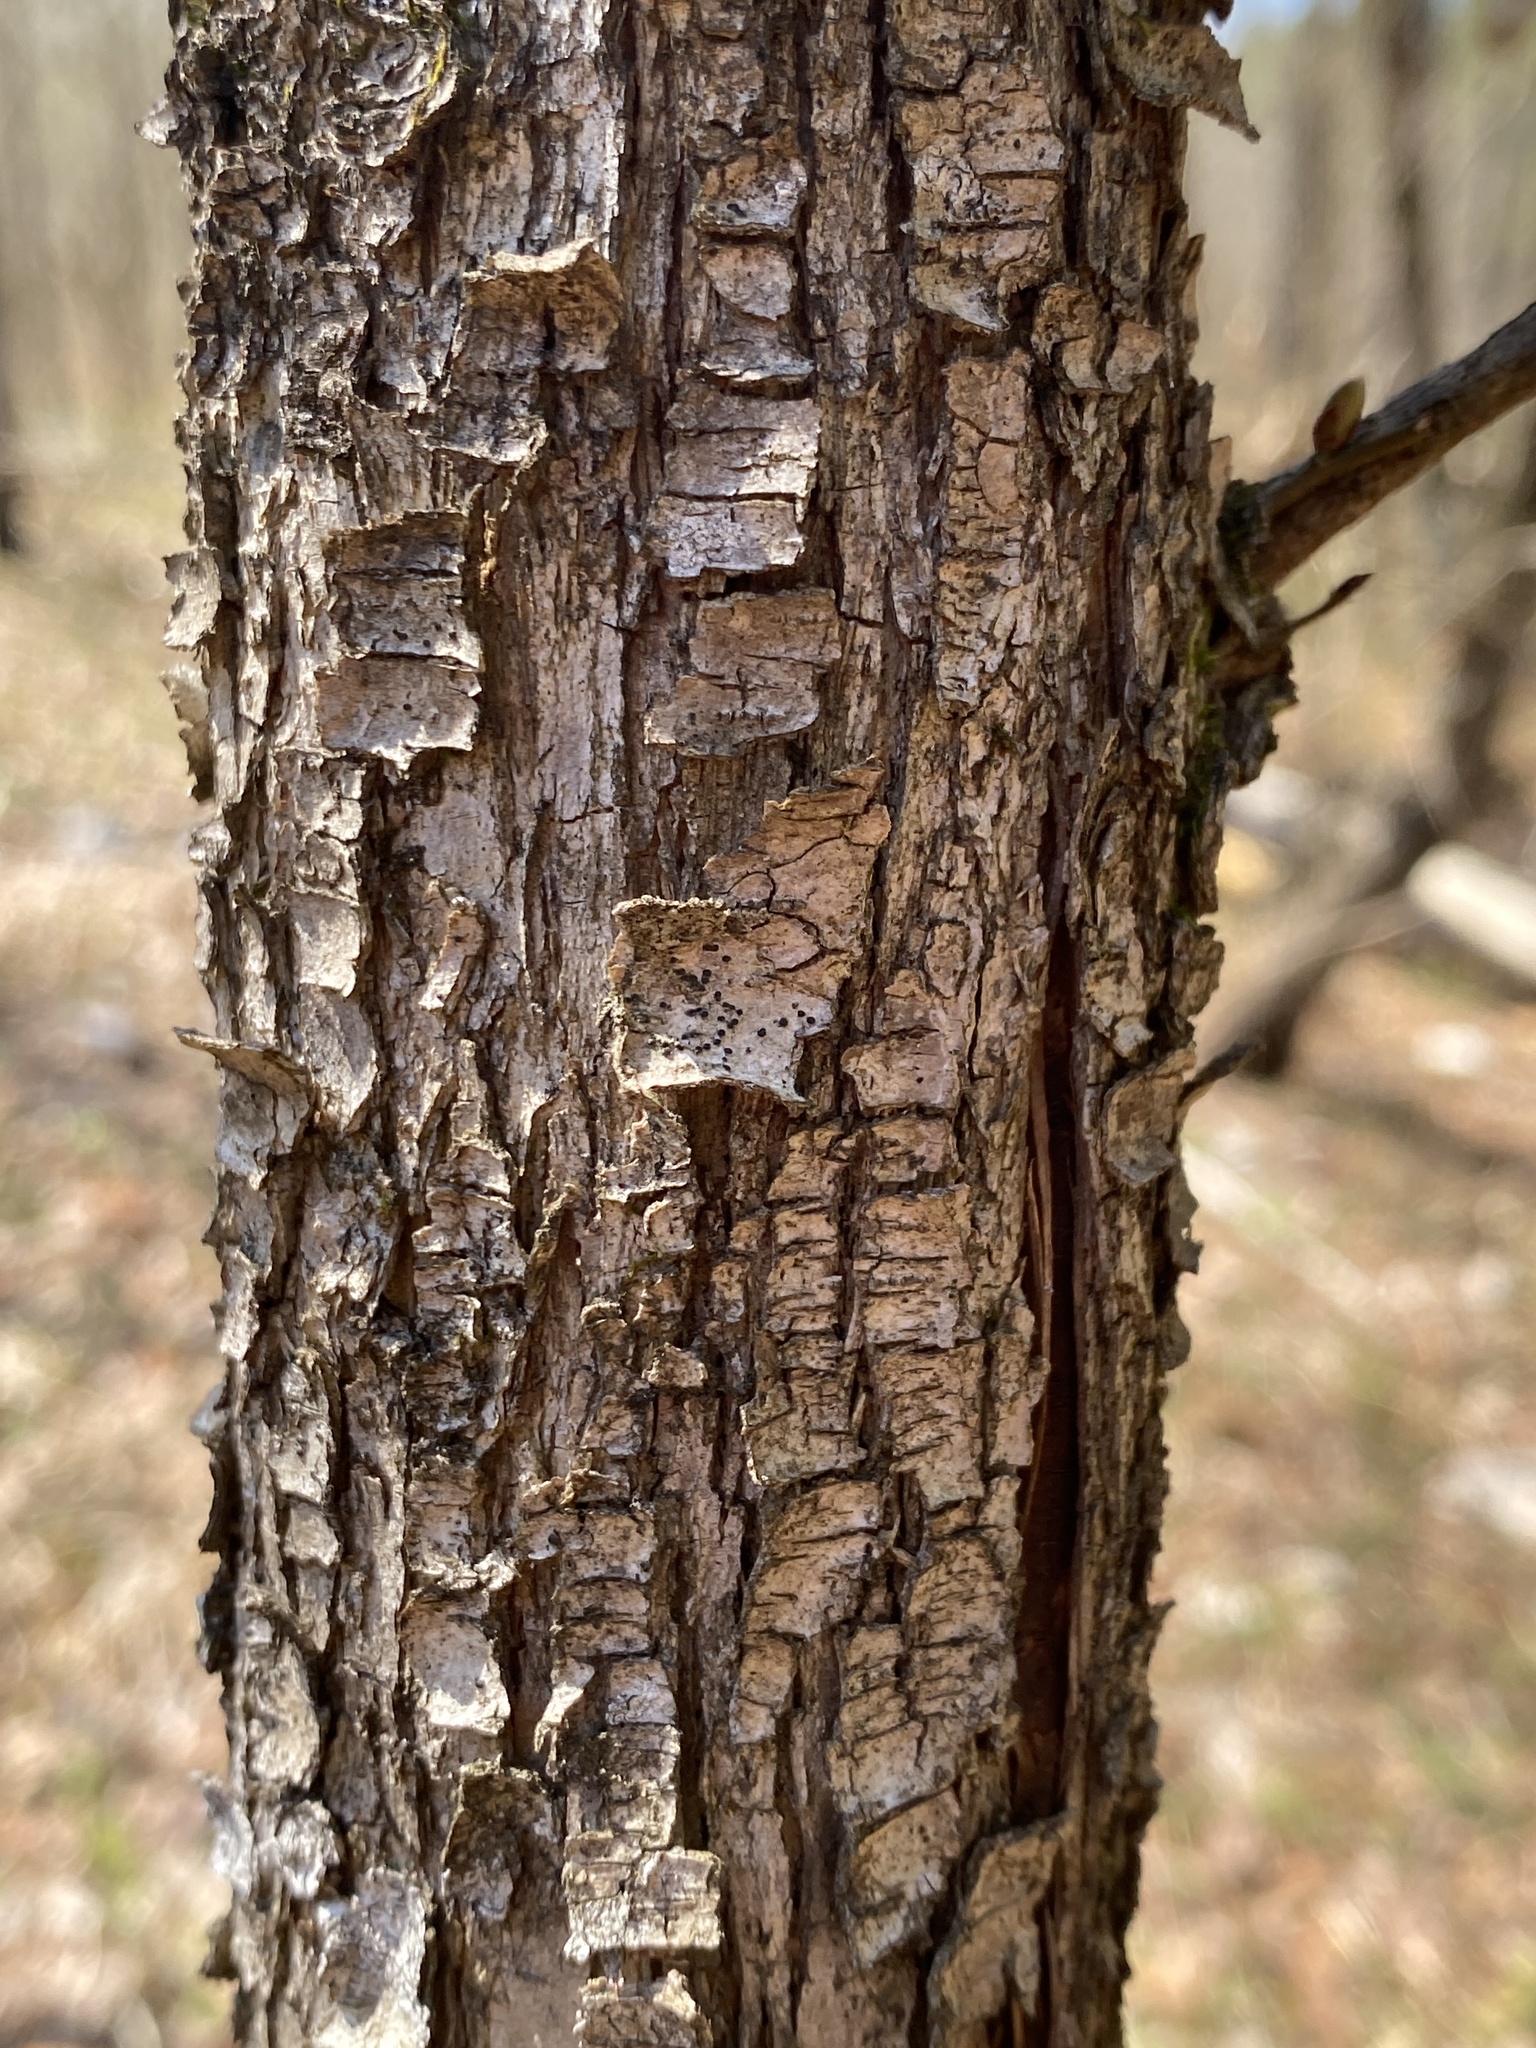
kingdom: Plantae
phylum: Tracheophyta
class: Magnoliopsida
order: Fagales
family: Betulaceae
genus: Ostrya
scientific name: Ostrya virginiana
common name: Ironwood
